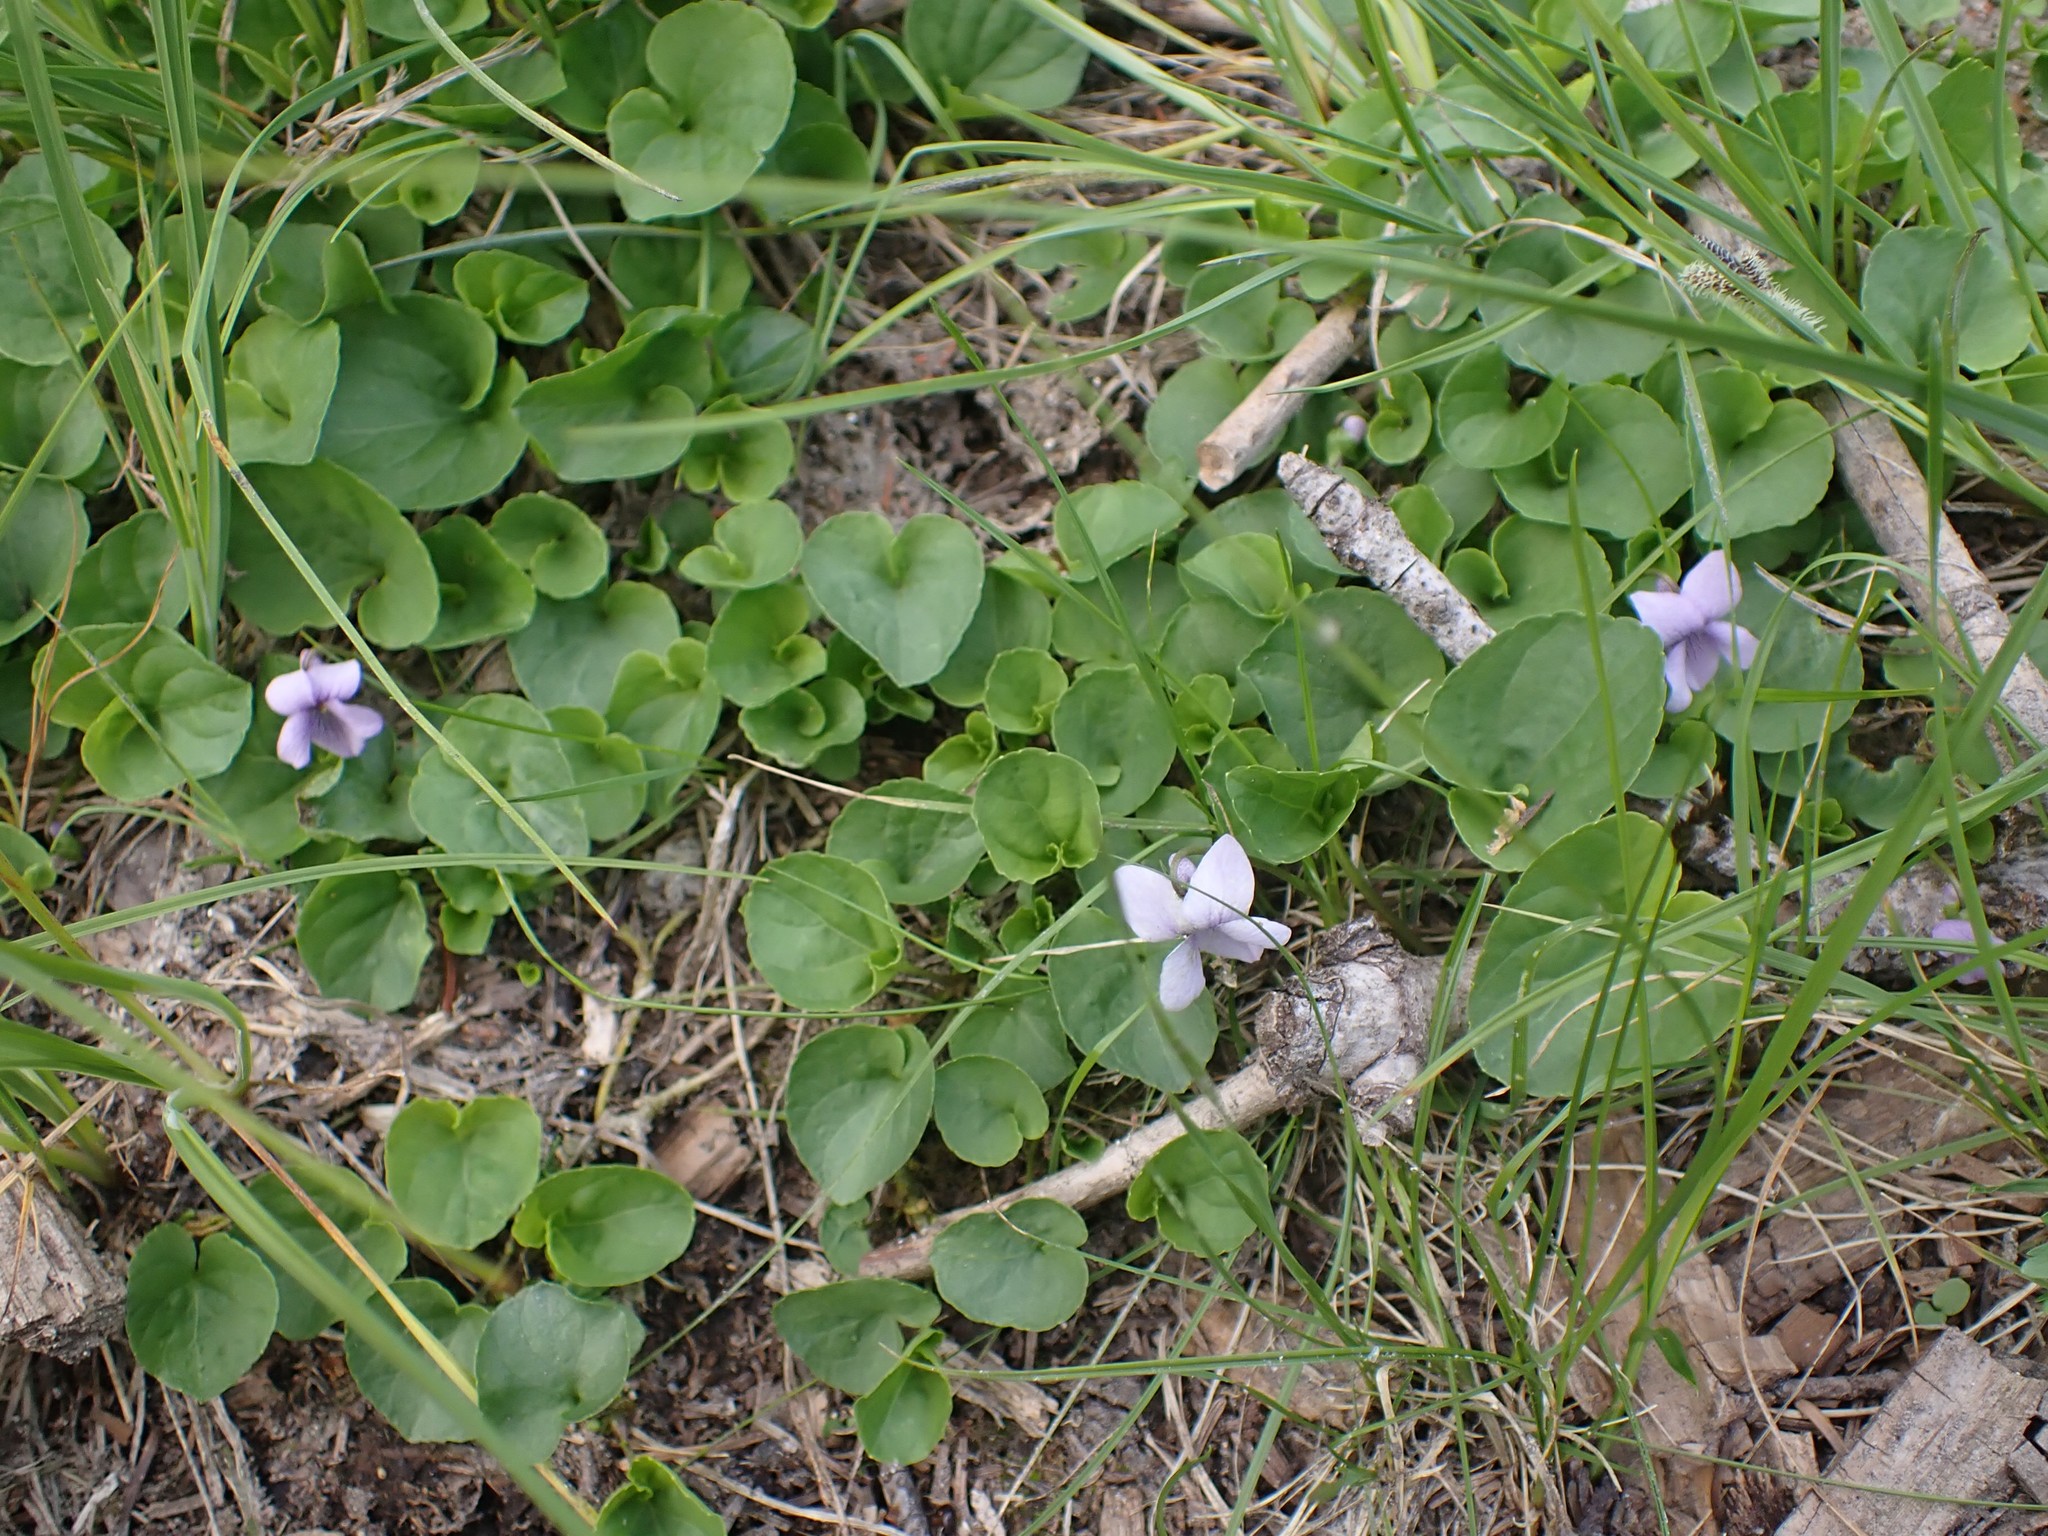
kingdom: Plantae
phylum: Tracheophyta
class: Magnoliopsida
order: Malpighiales
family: Violaceae
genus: Viola
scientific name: Viola palustris
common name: Marsh violet
